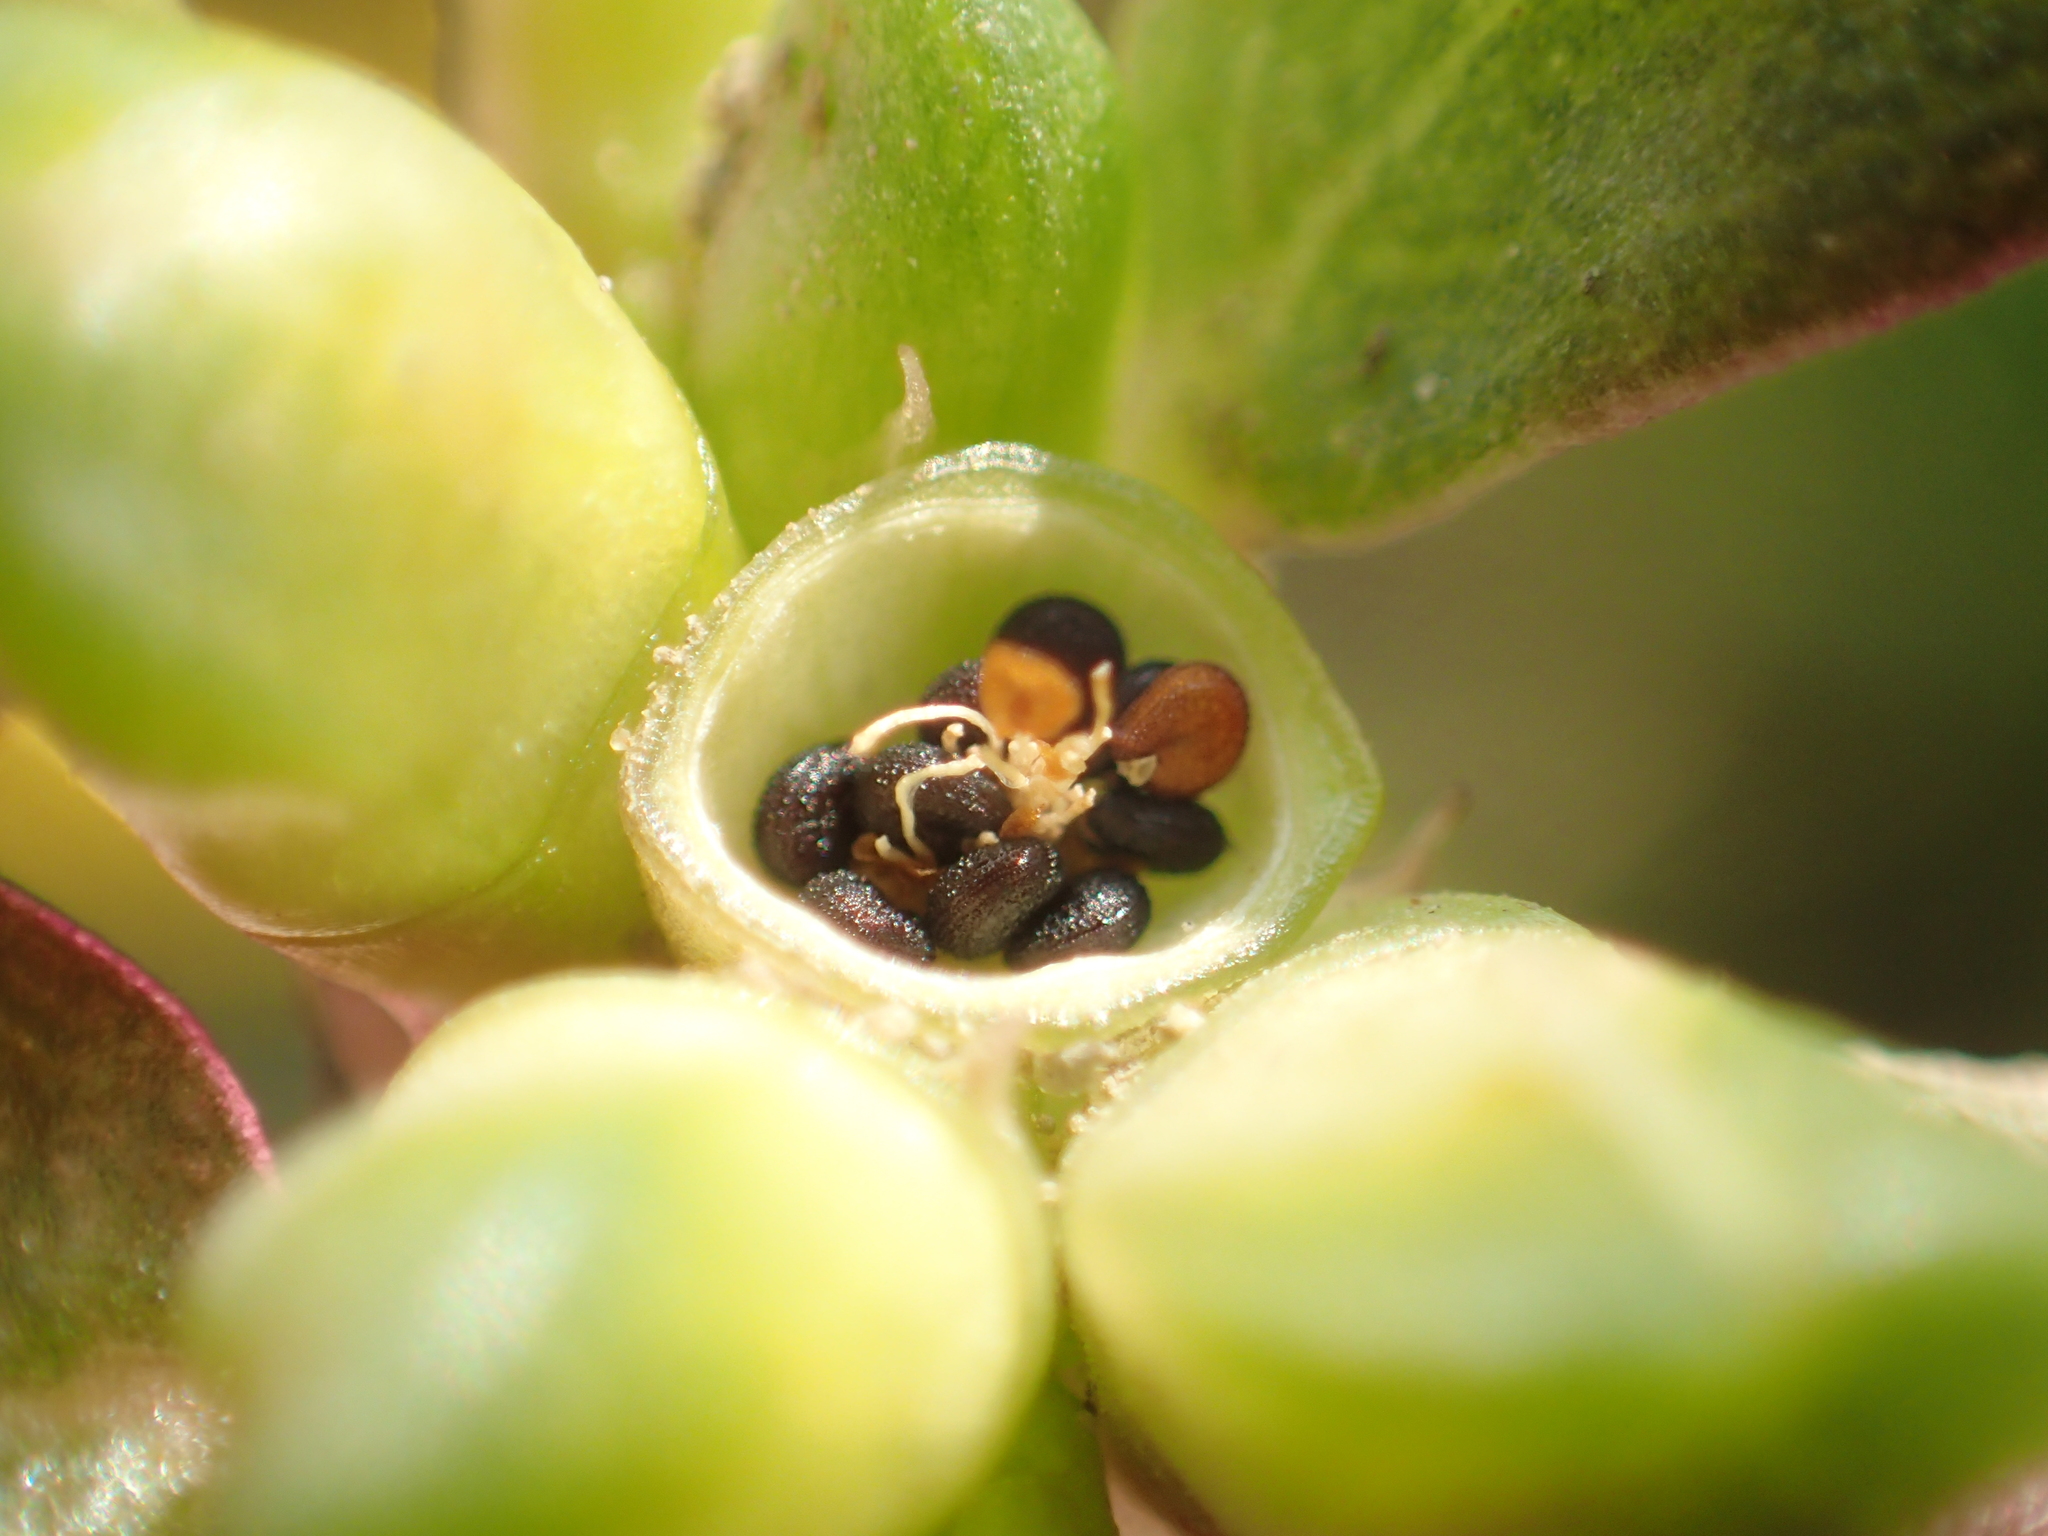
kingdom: Plantae
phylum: Tracheophyta
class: Magnoliopsida
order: Caryophyllales
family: Portulacaceae
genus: Portulaca
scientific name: Portulaca oleracea
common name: Common purslane
